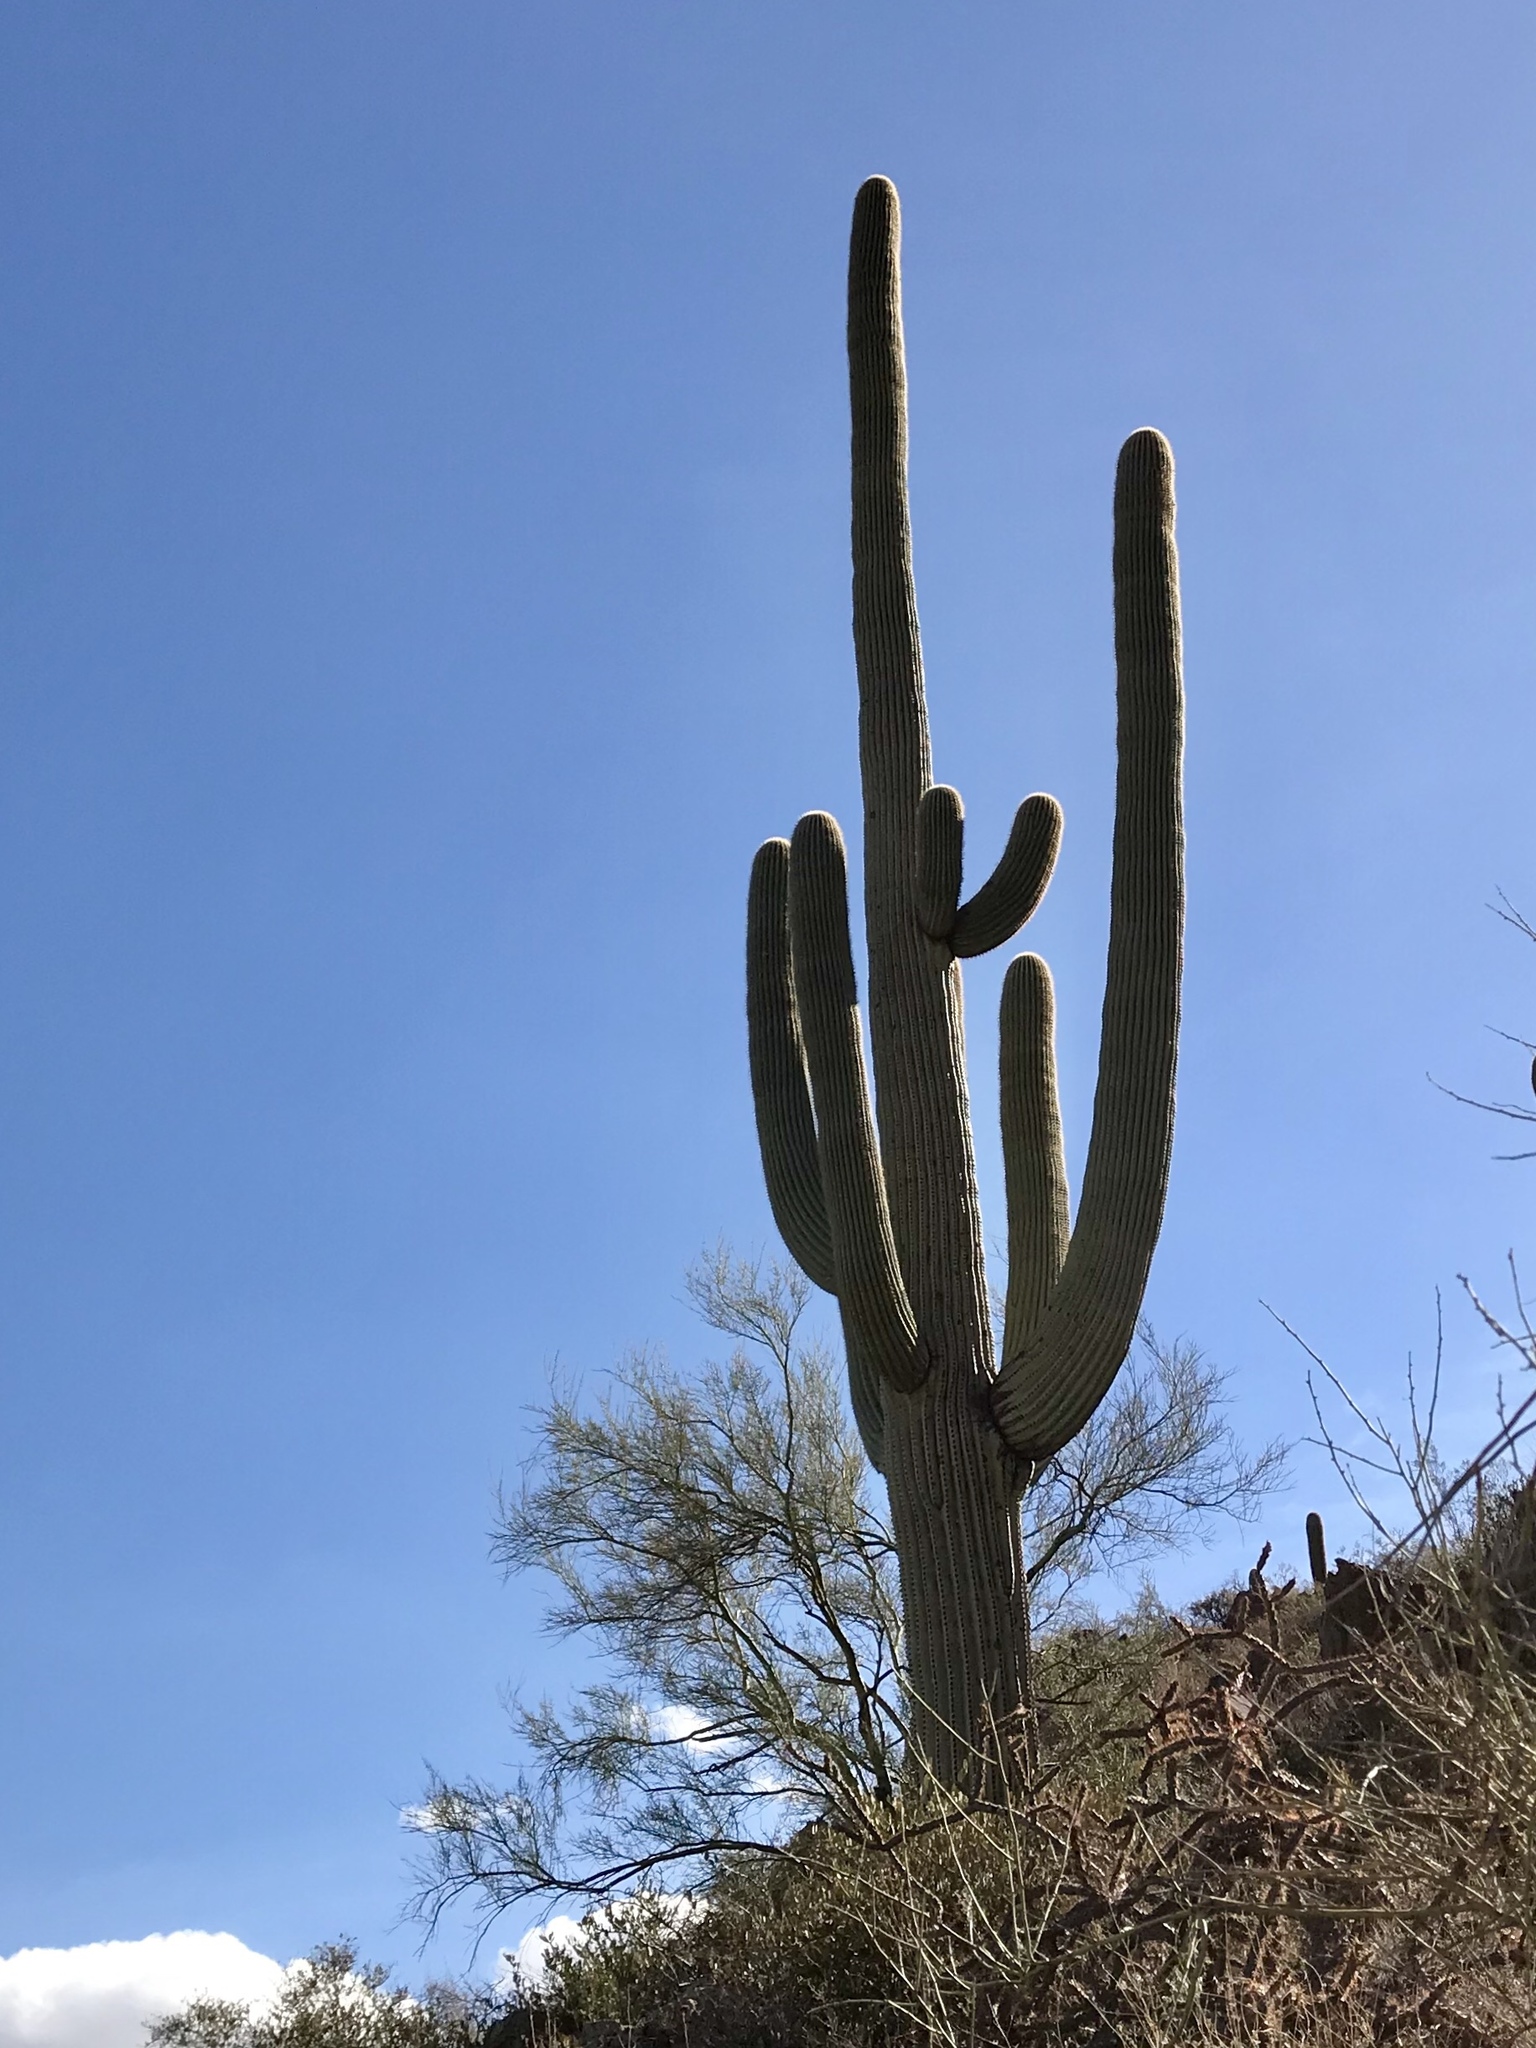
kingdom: Plantae
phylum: Tracheophyta
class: Magnoliopsida
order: Caryophyllales
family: Cactaceae
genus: Carnegiea
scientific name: Carnegiea gigantea
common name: Saguaro
